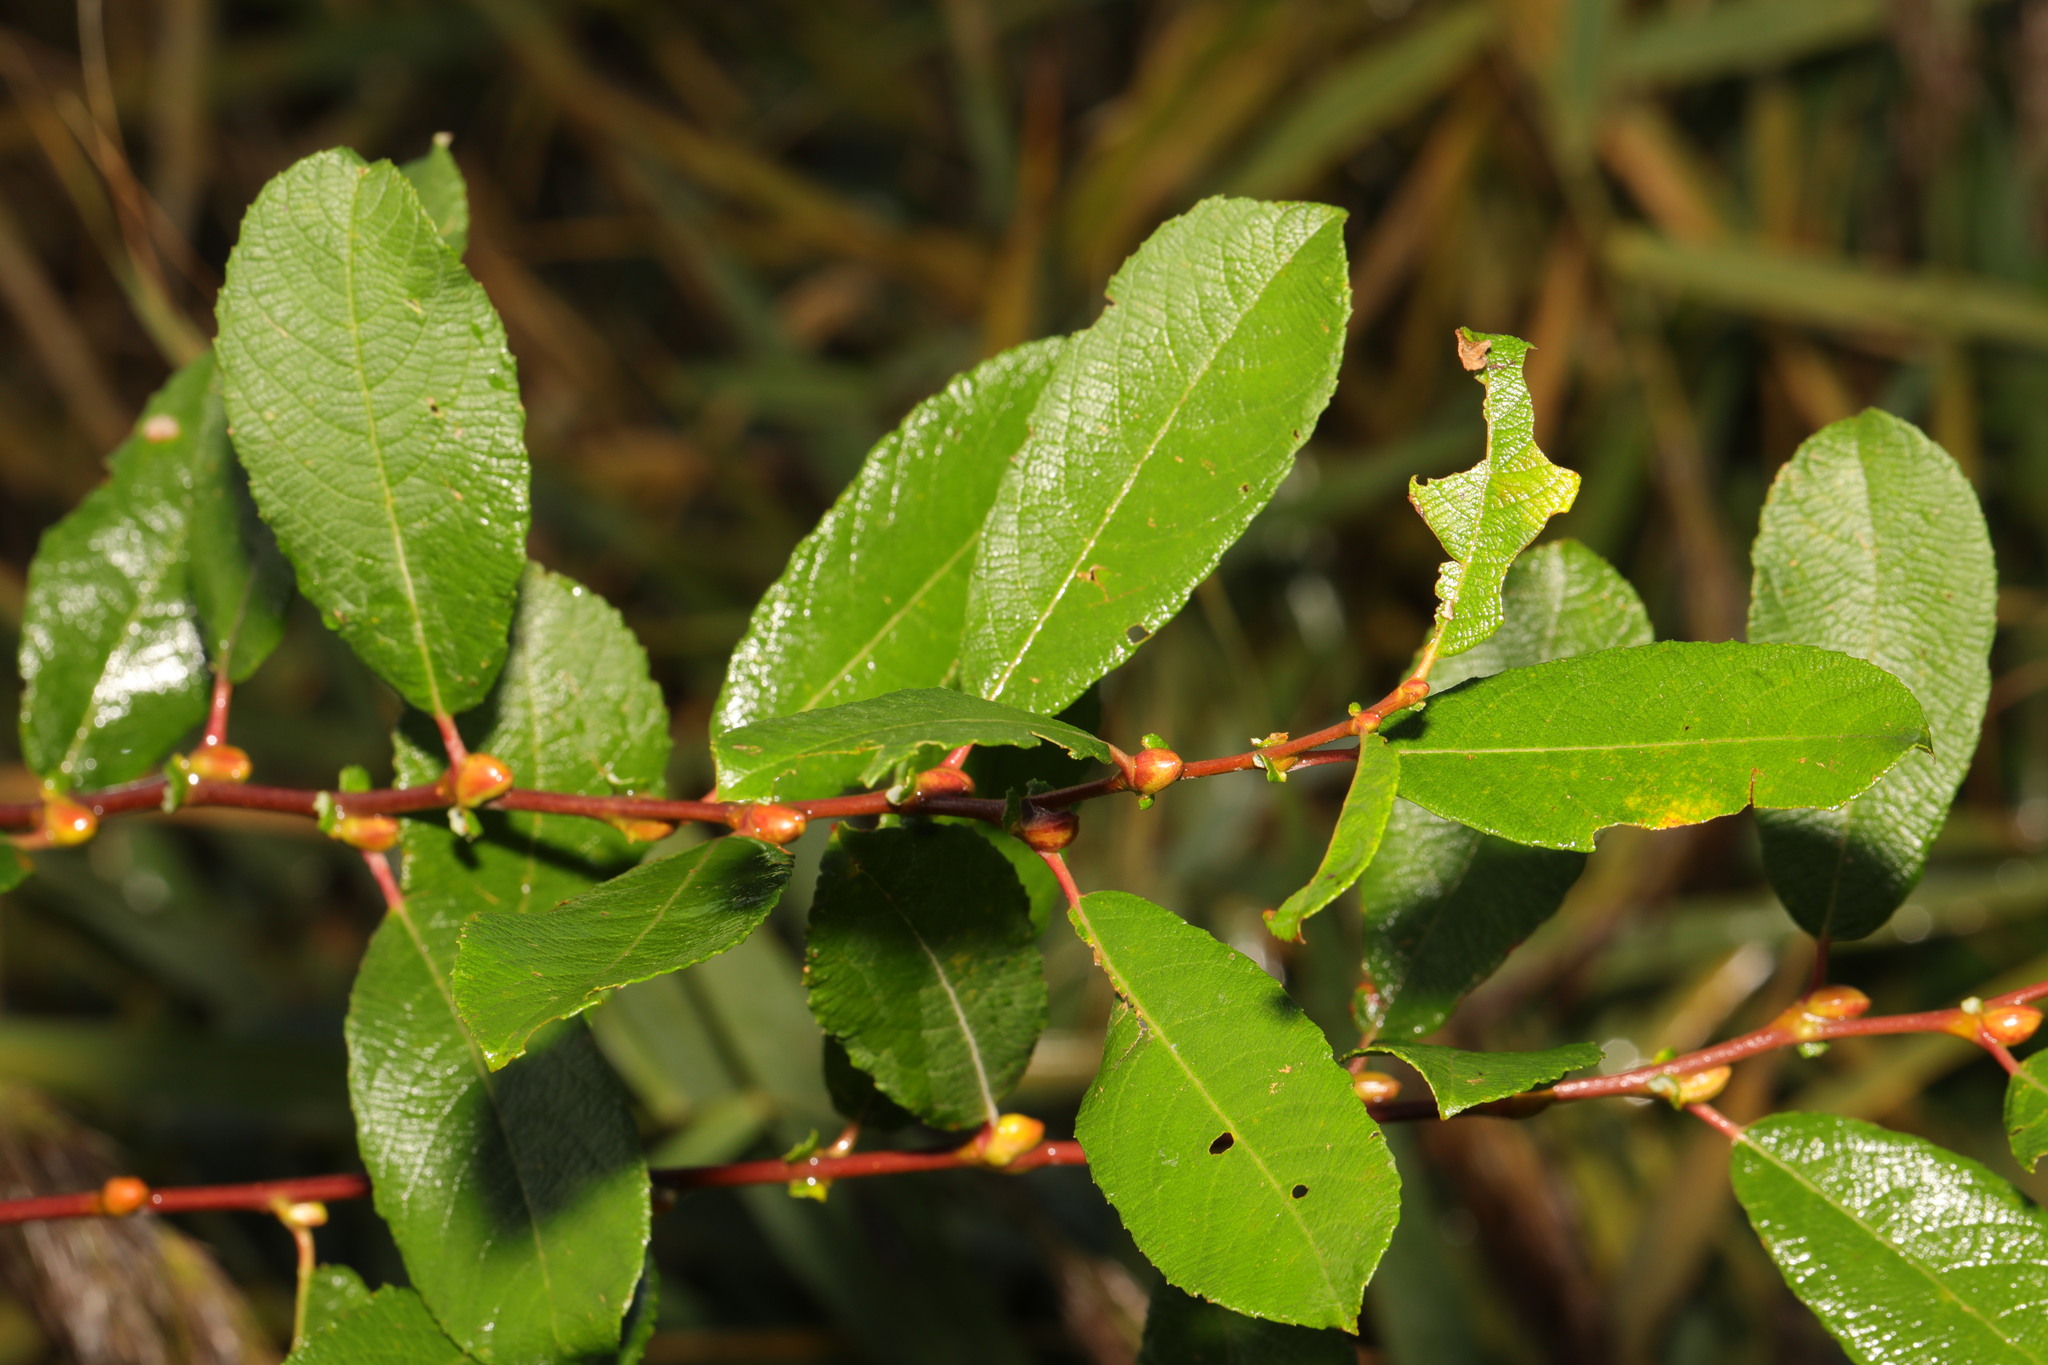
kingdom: Plantae
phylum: Tracheophyta
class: Magnoliopsida
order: Malpighiales
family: Salicaceae
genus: Salix
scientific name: Salix cinerea
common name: Common sallow
